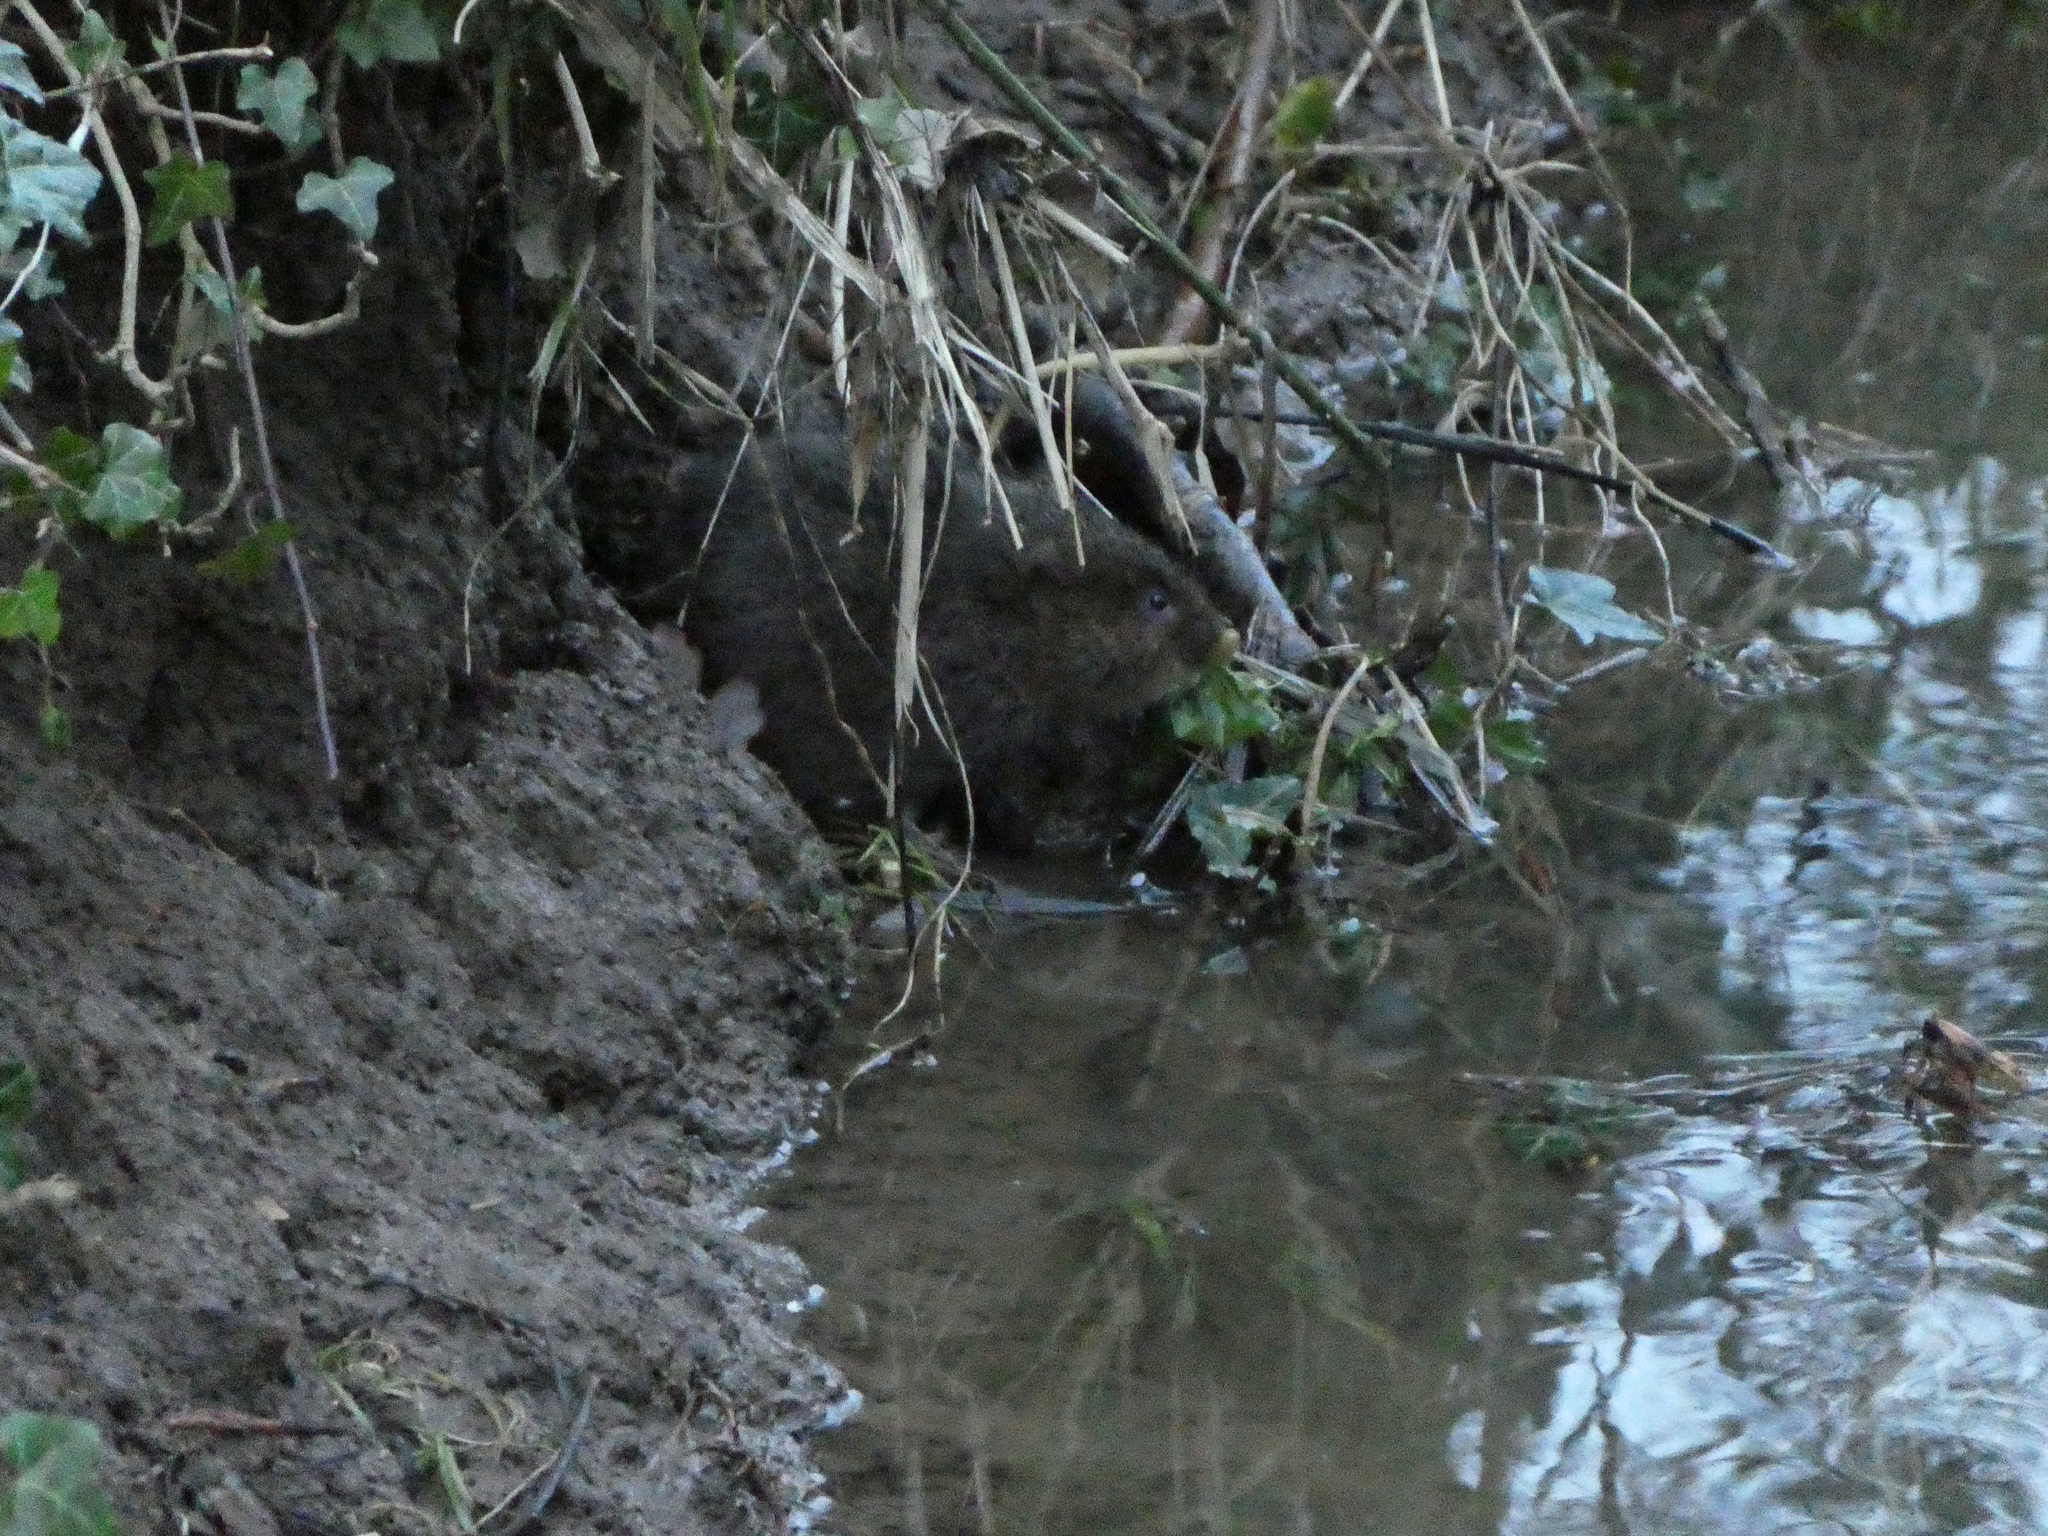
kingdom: Animalia
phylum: Chordata
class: Mammalia
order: Rodentia
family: Cricetidae
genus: Arvicola
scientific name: Arvicola amphibius
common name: European water vole
